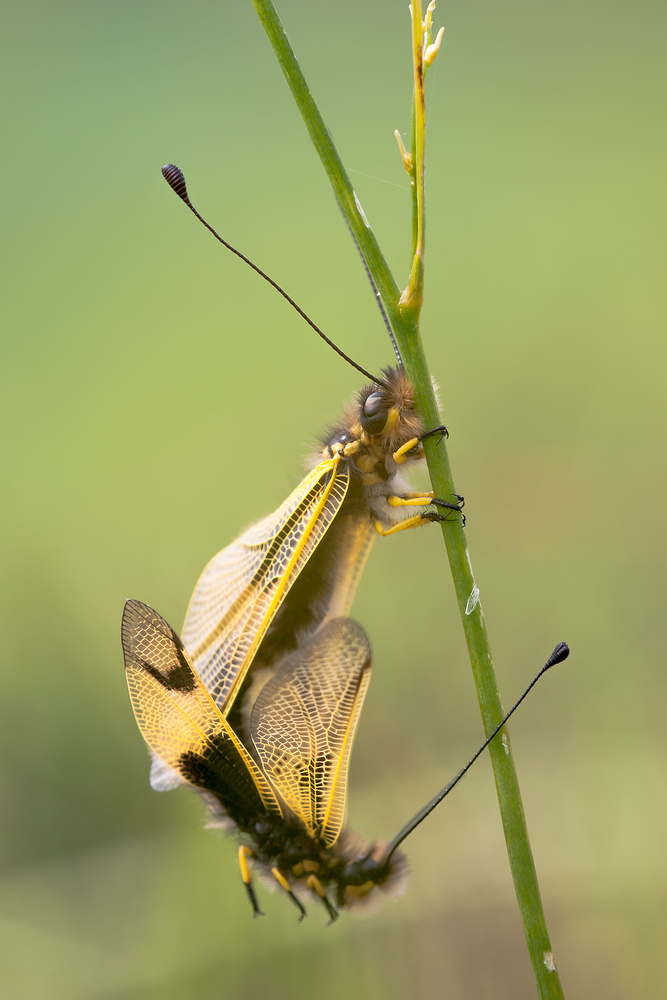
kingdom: Animalia
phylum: Arthropoda
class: Insecta
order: Neuroptera
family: Ascalaphidae
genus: Libelloides
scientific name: Libelloides longicornis
